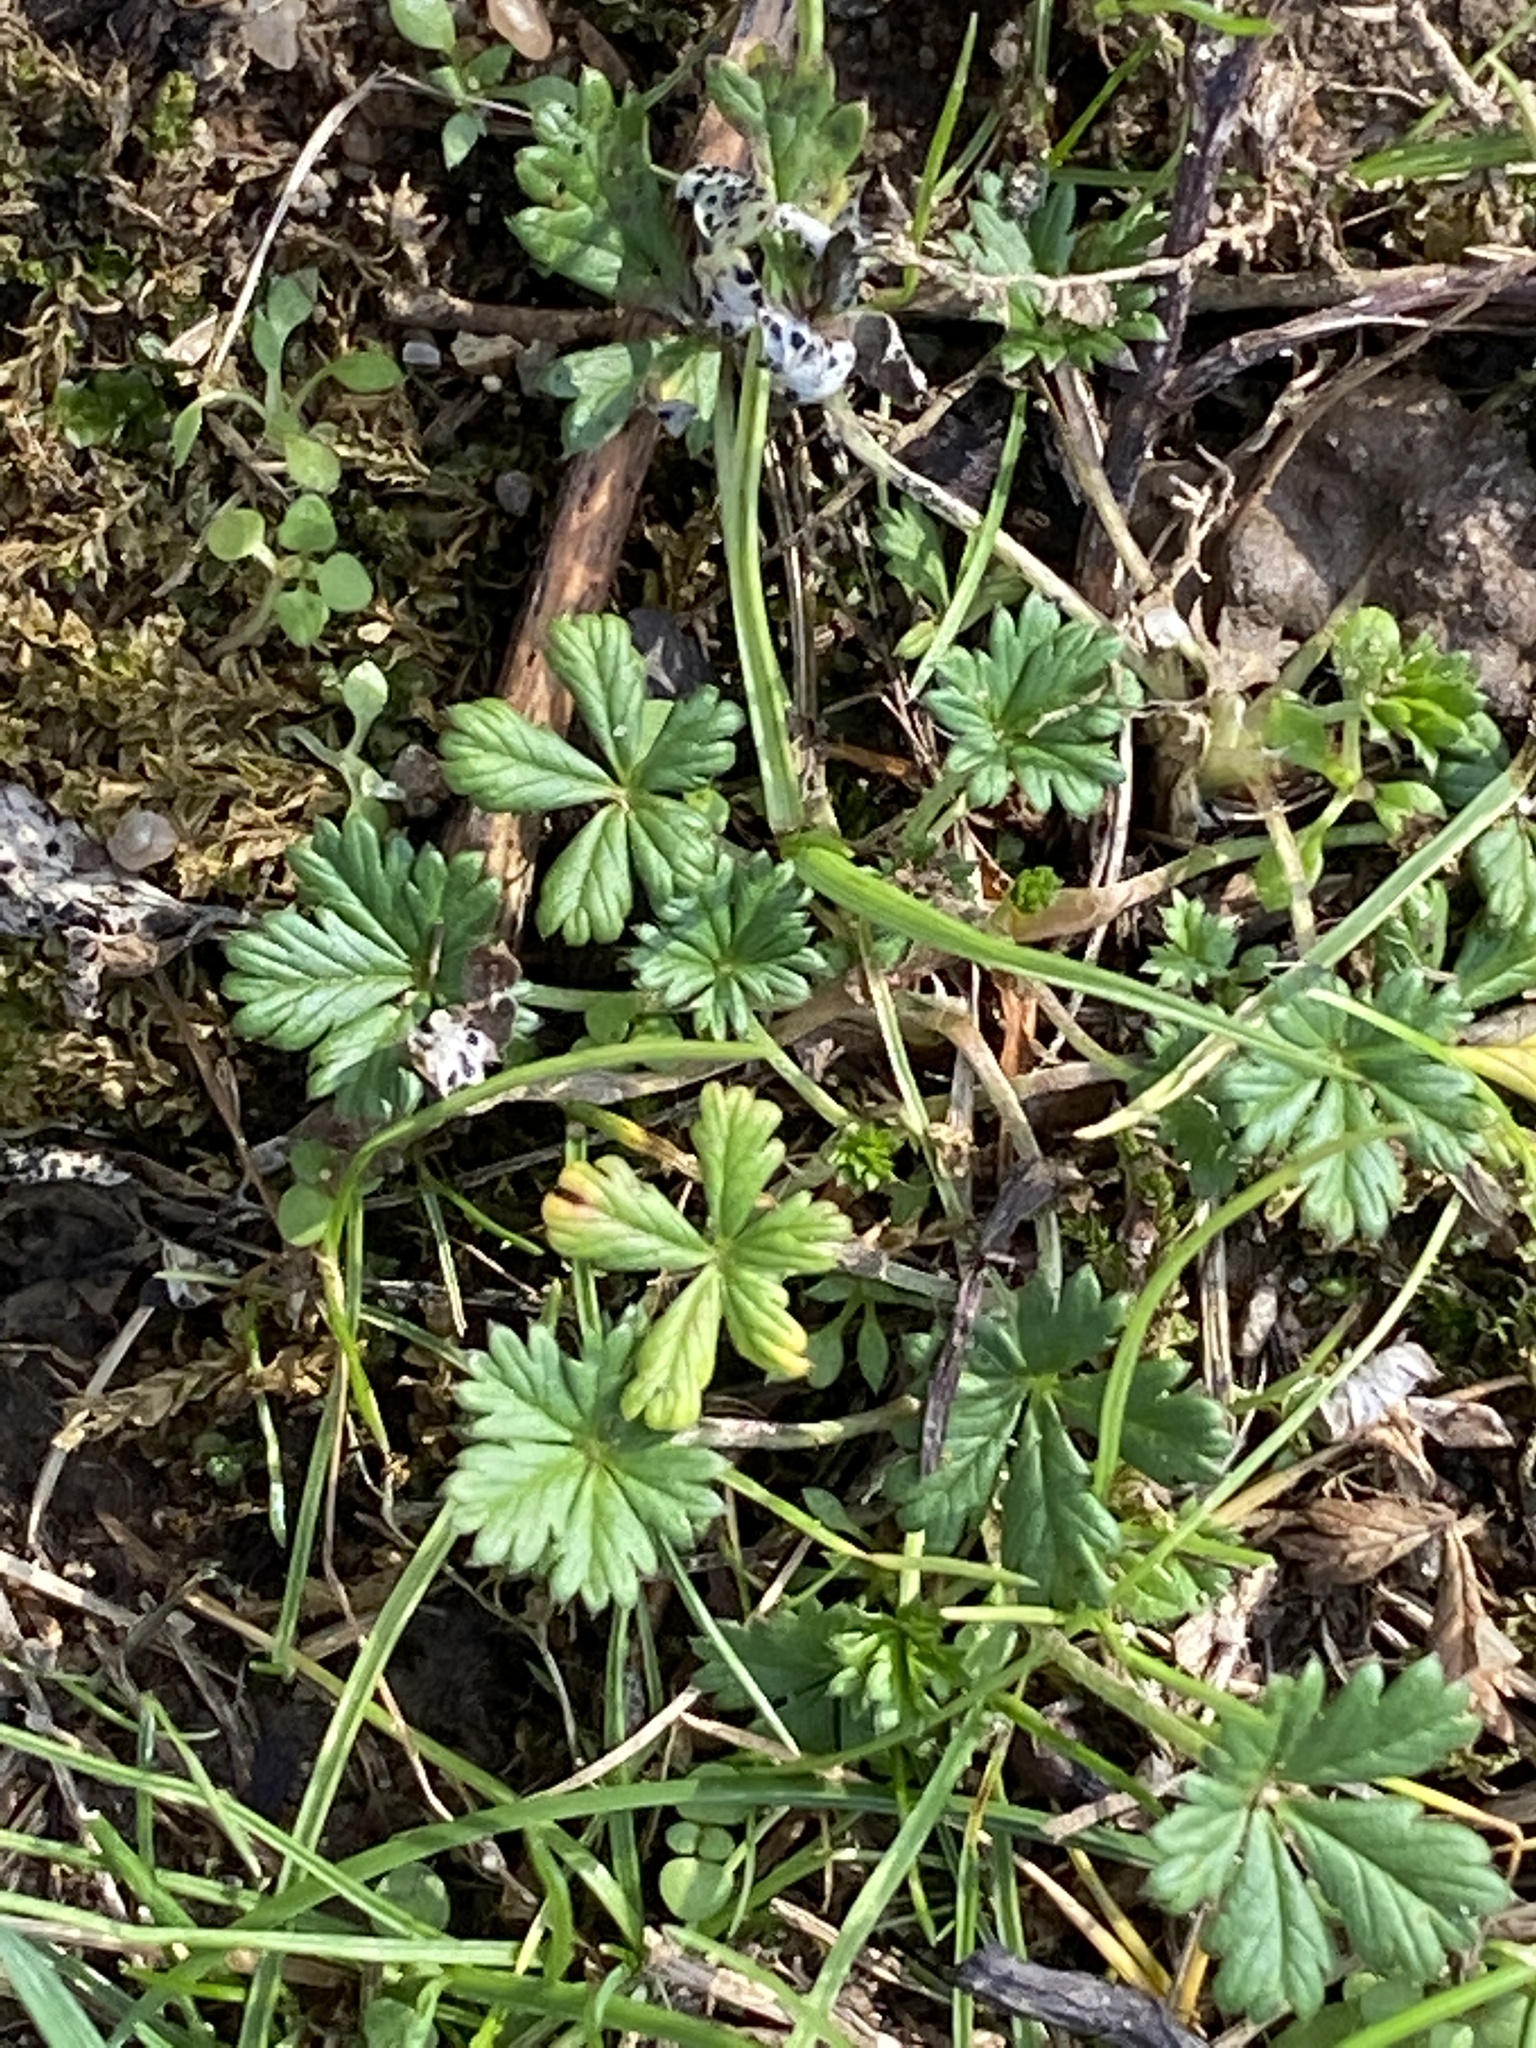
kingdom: Plantae
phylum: Tracheophyta
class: Magnoliopsida
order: Rosales
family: Rosaceae
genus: Potentilla
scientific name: Potentilla argentea
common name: Hoary cinquefoil
